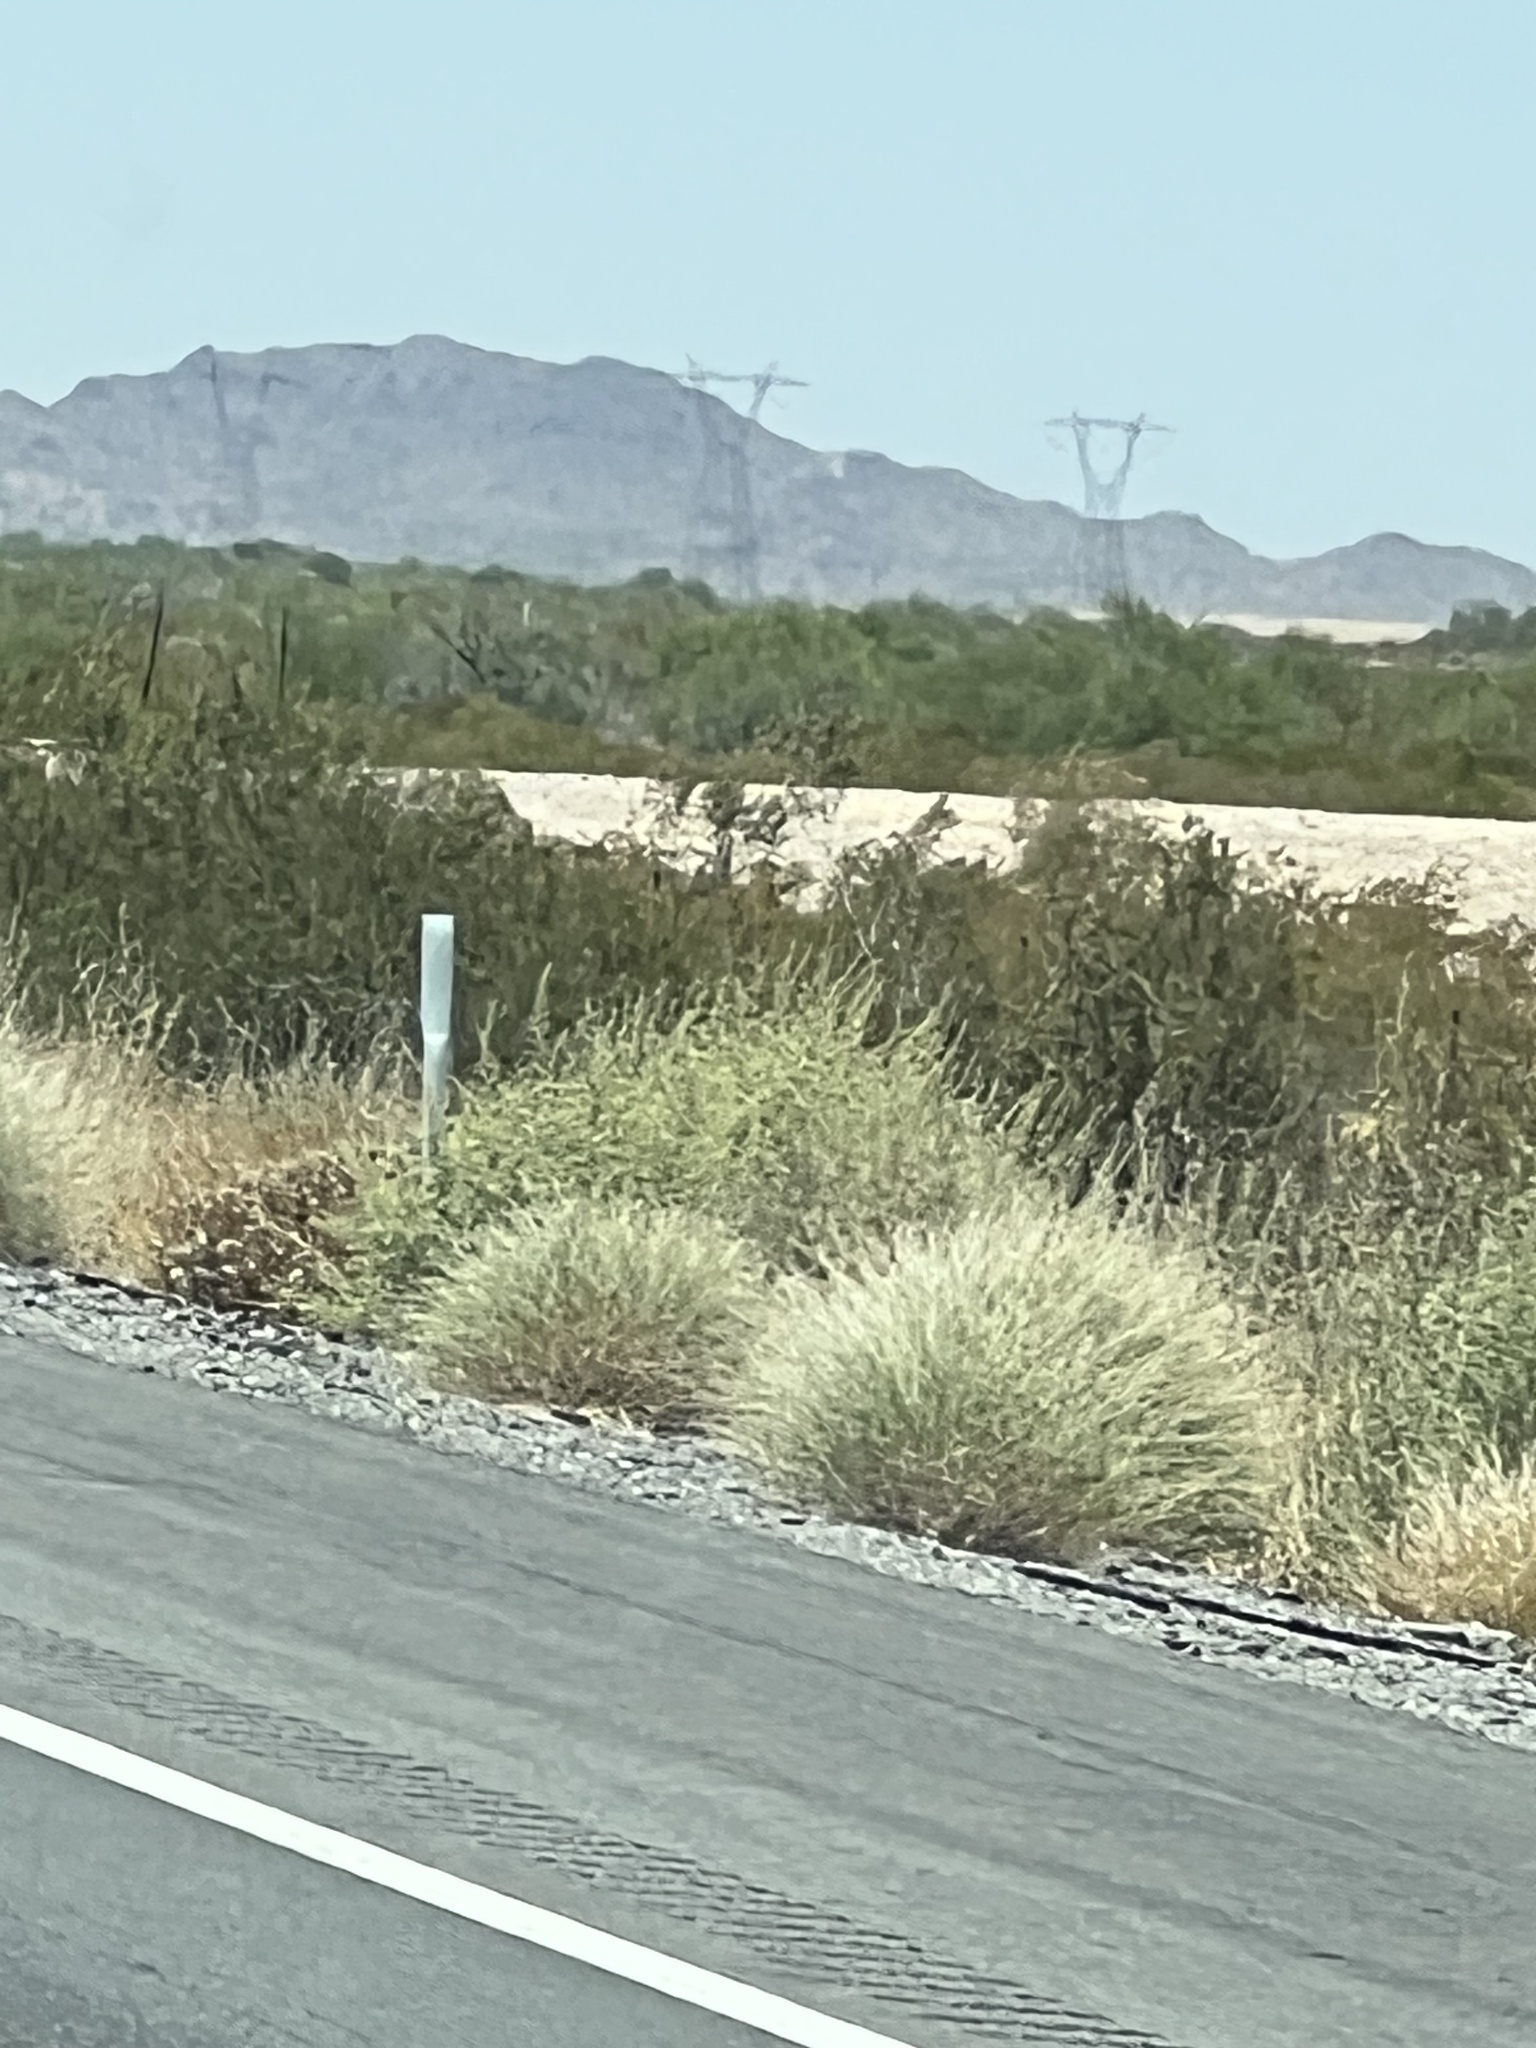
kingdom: Plantae
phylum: Tracheophyta
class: Liliopsida
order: Poales
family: Poaceae
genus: Cenchrus
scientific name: Cenchrus setaceus
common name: Crimson fountaingrass
